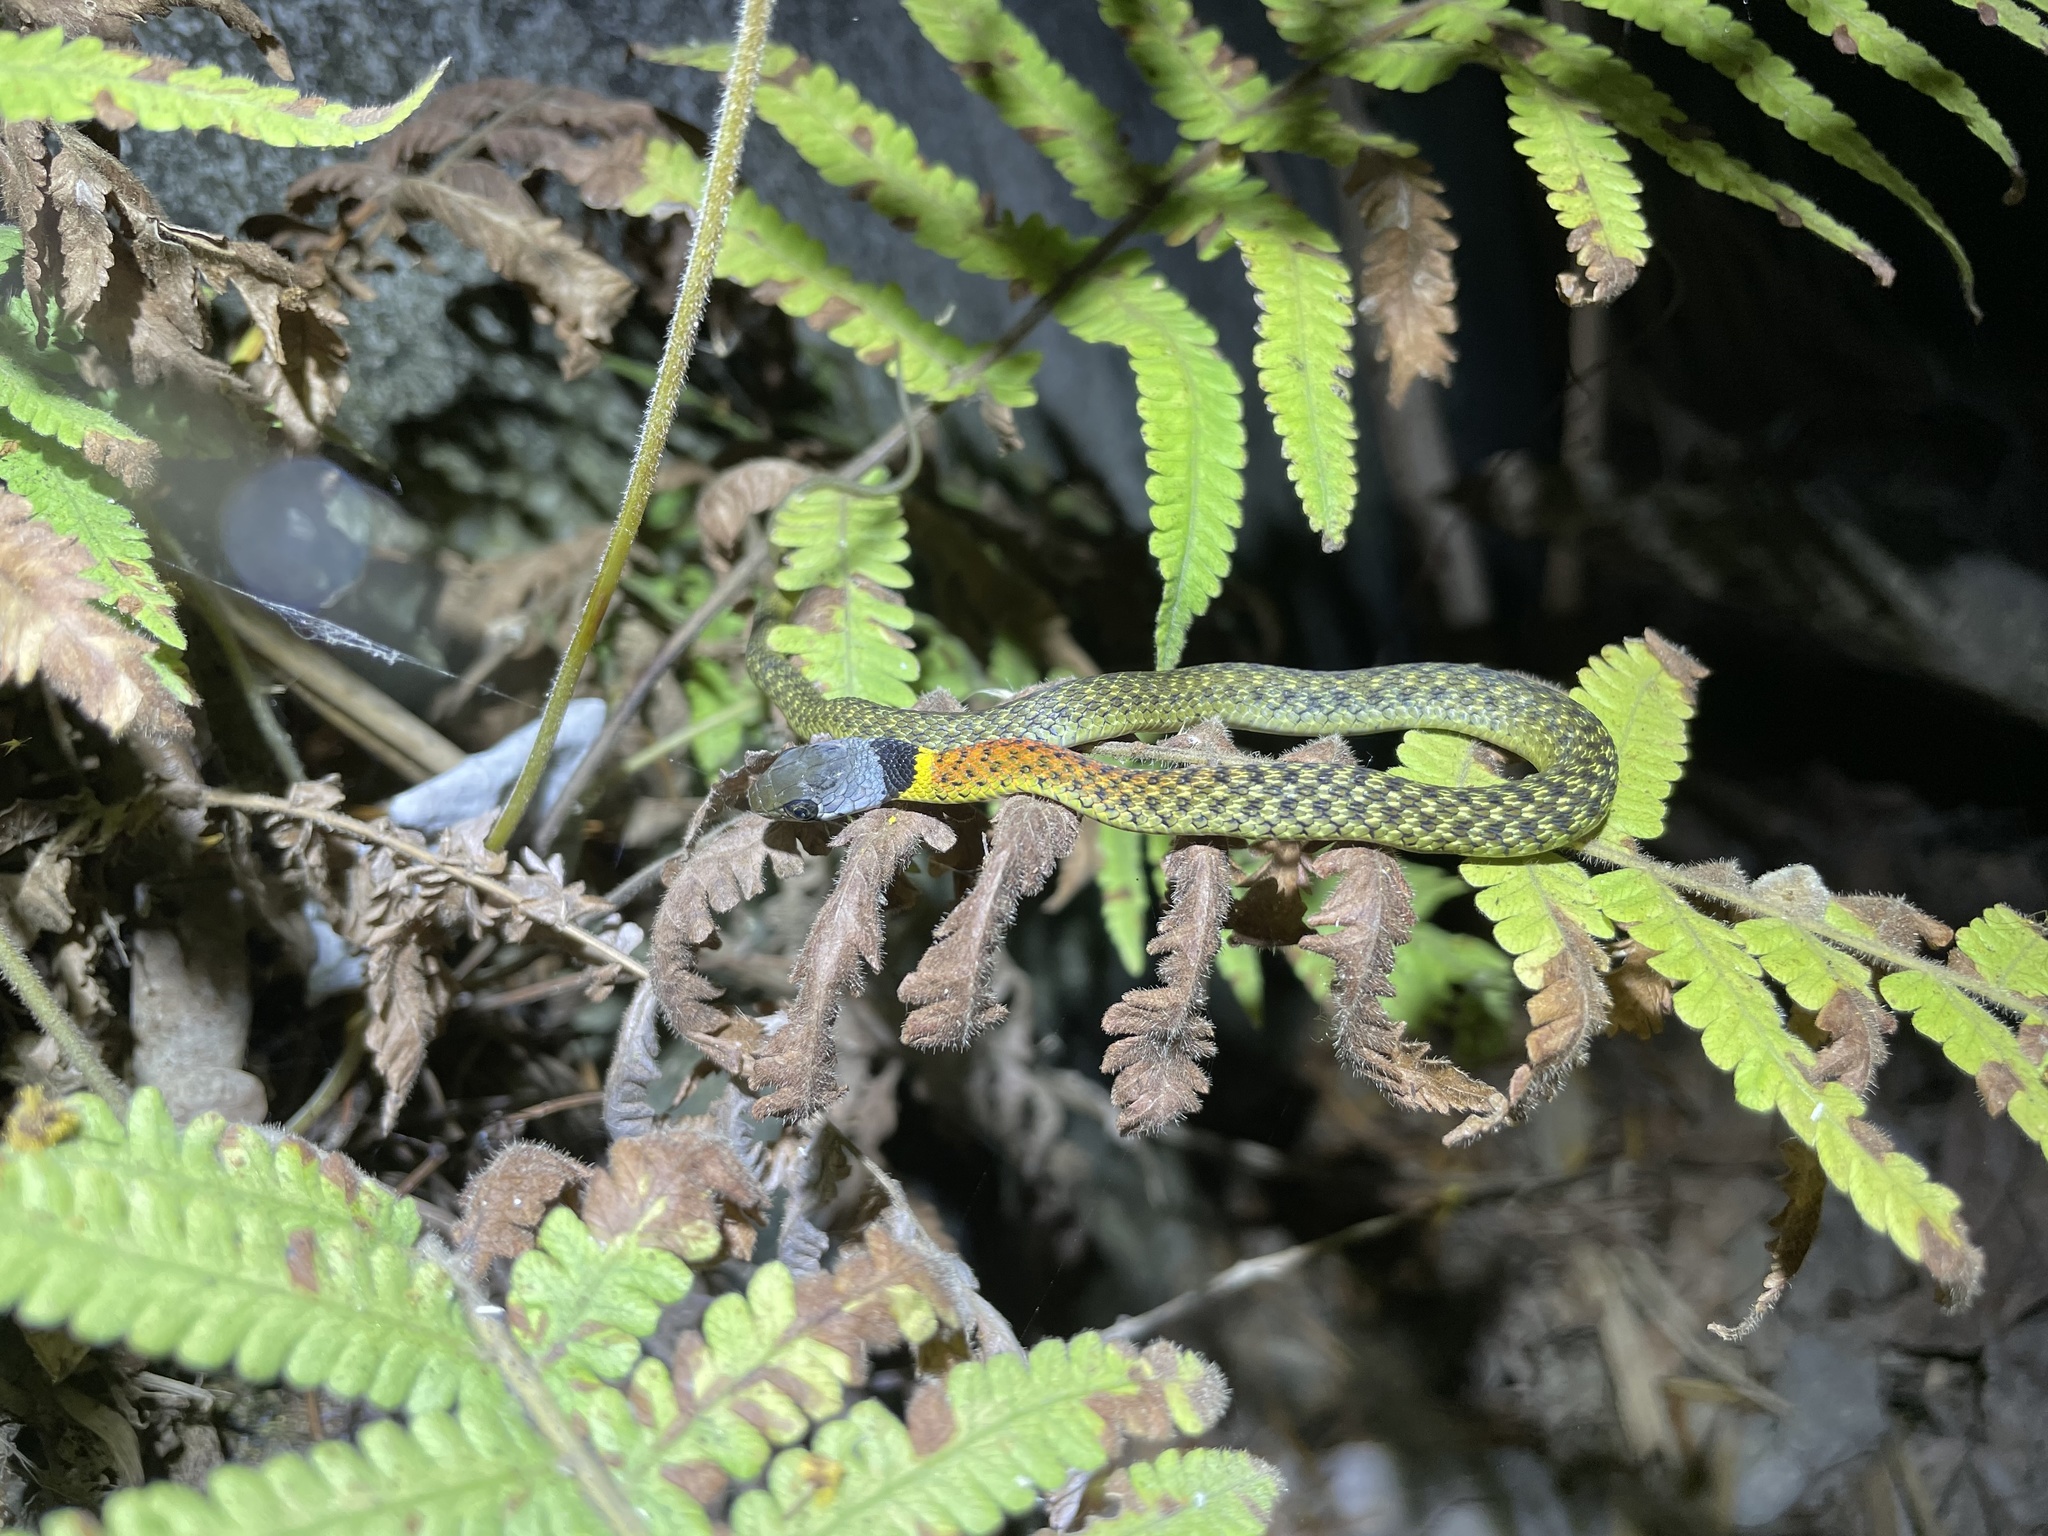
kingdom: Animalia
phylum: Chordata
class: Squamata
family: Colubridae
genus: Rhabdophis
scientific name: Rhabdophis helleri
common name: Heller’s red-necked keelback
